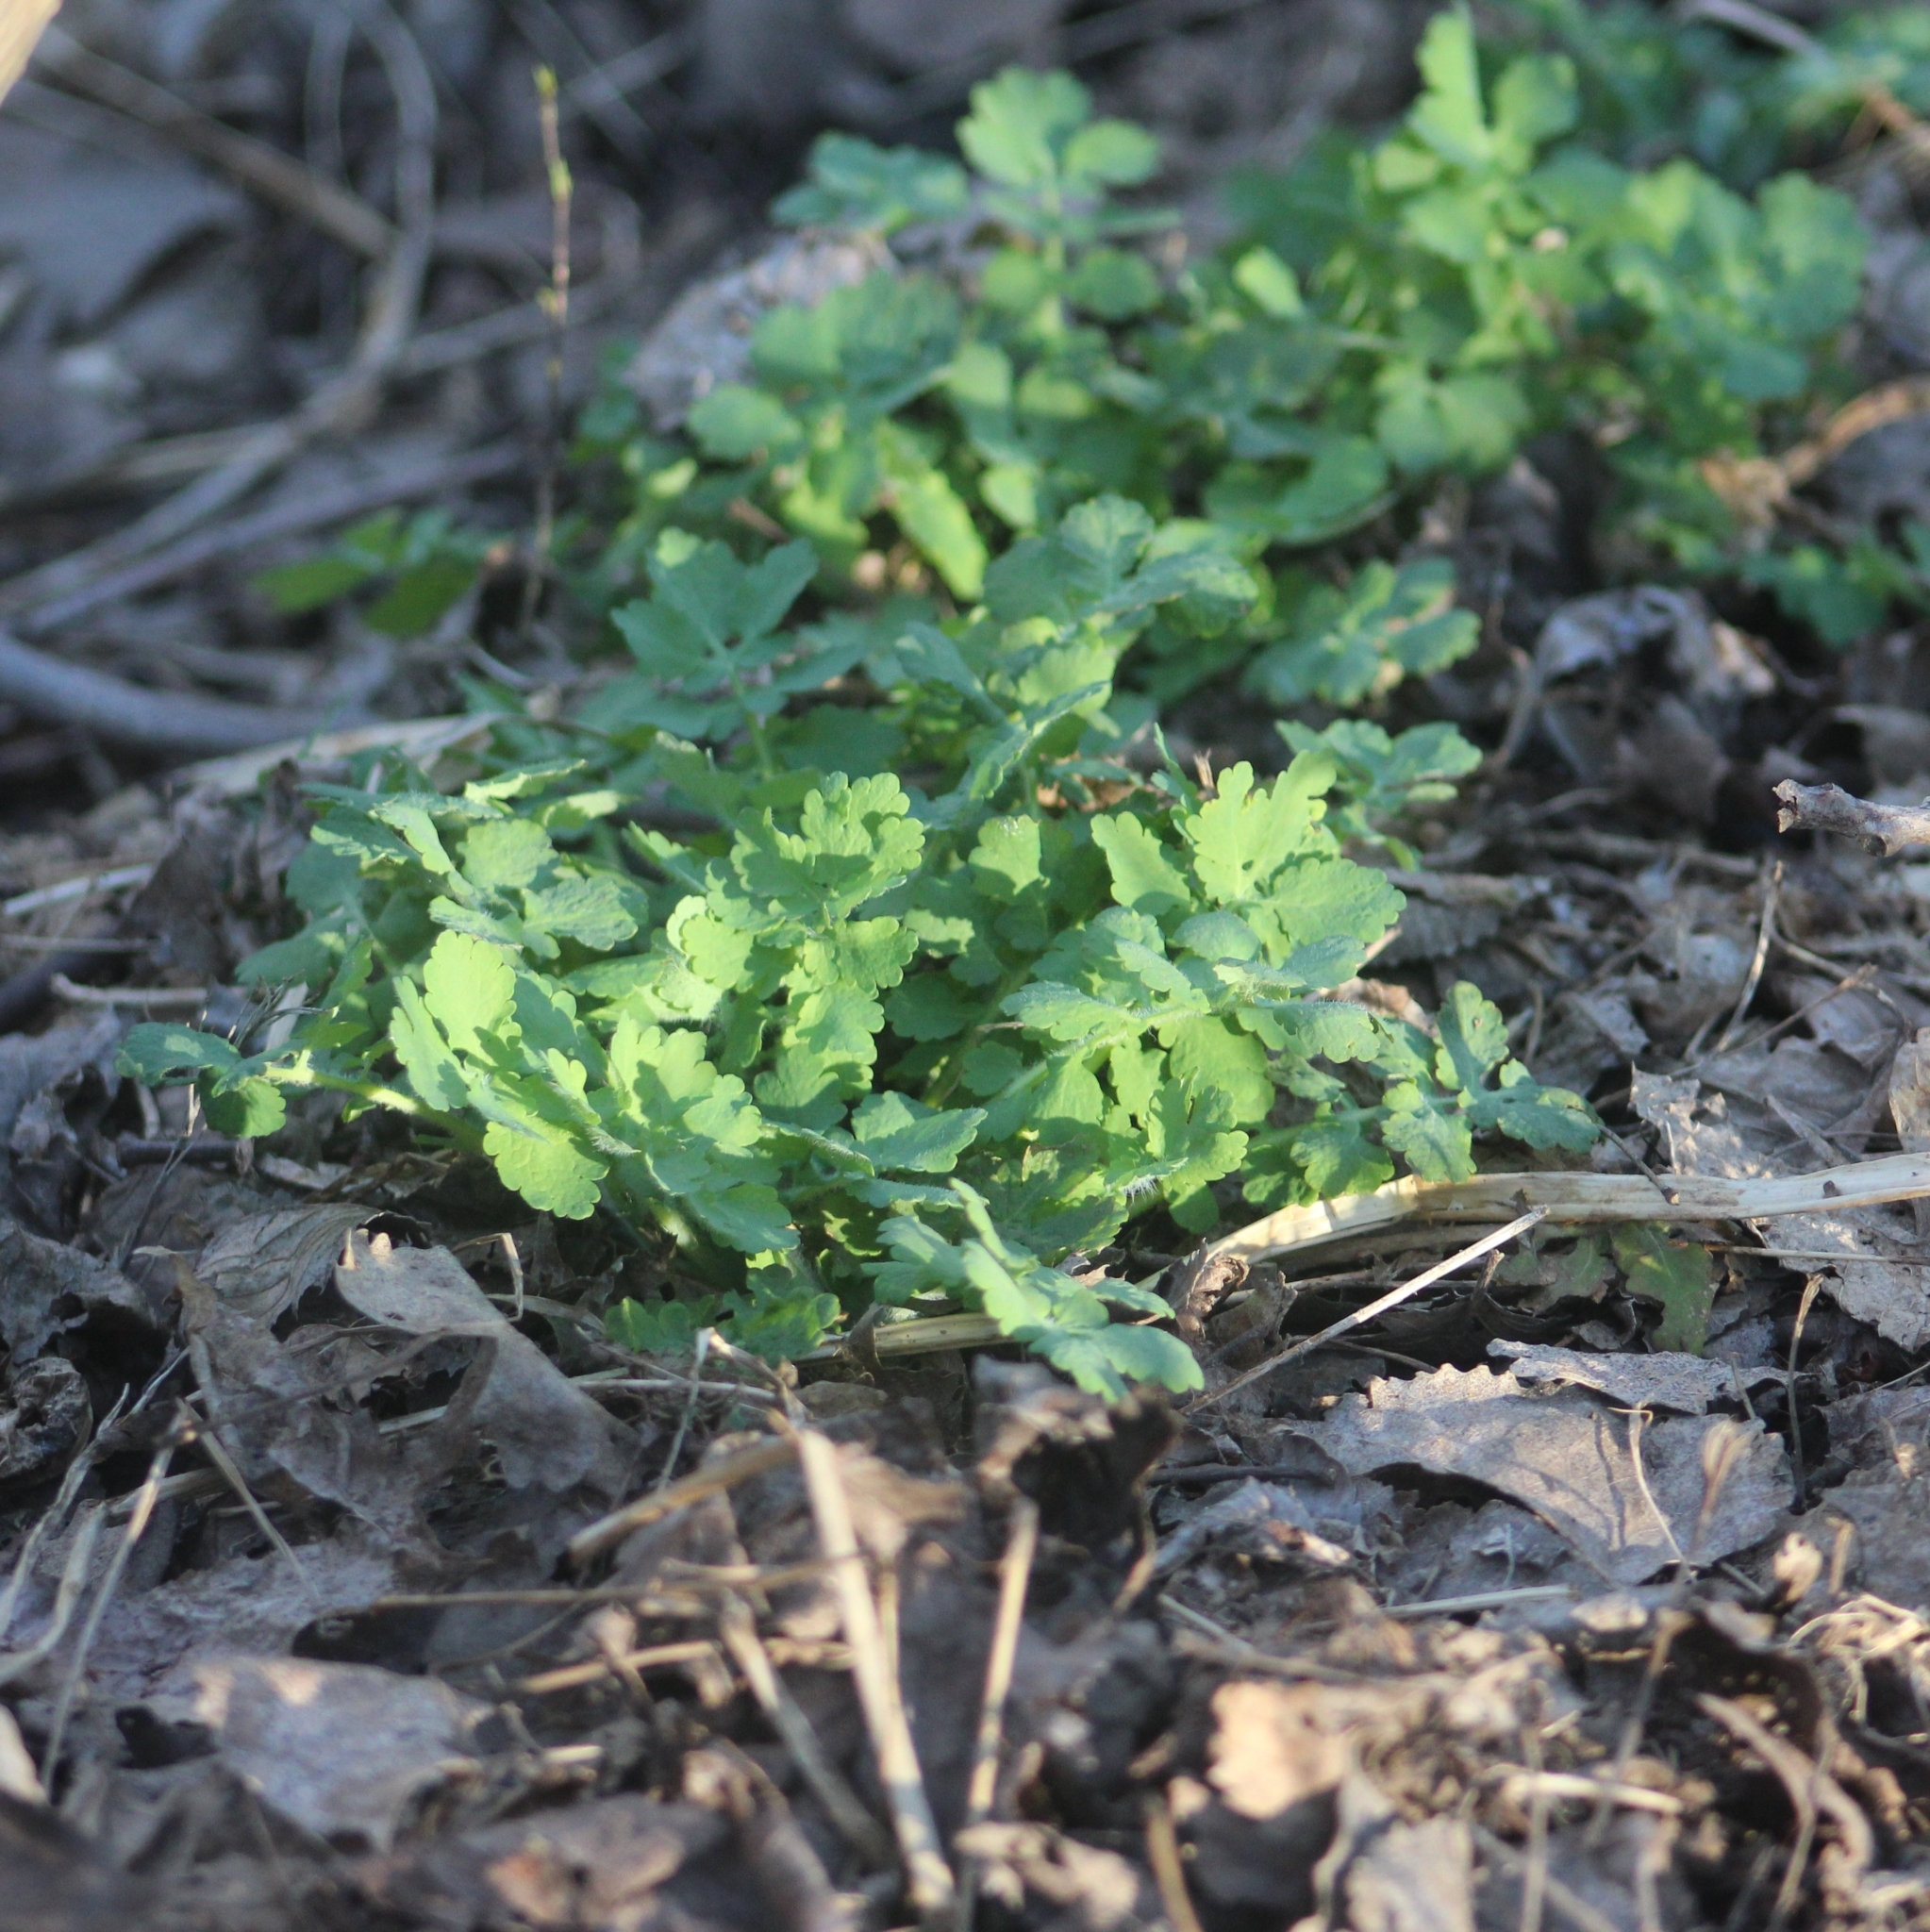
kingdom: Plantae
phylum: Tracheophyta
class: Magnoliopsida
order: Ranunculales
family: Papaveraceae
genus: Chelidonium
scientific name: Chelidonium majus
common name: Greater celandine
